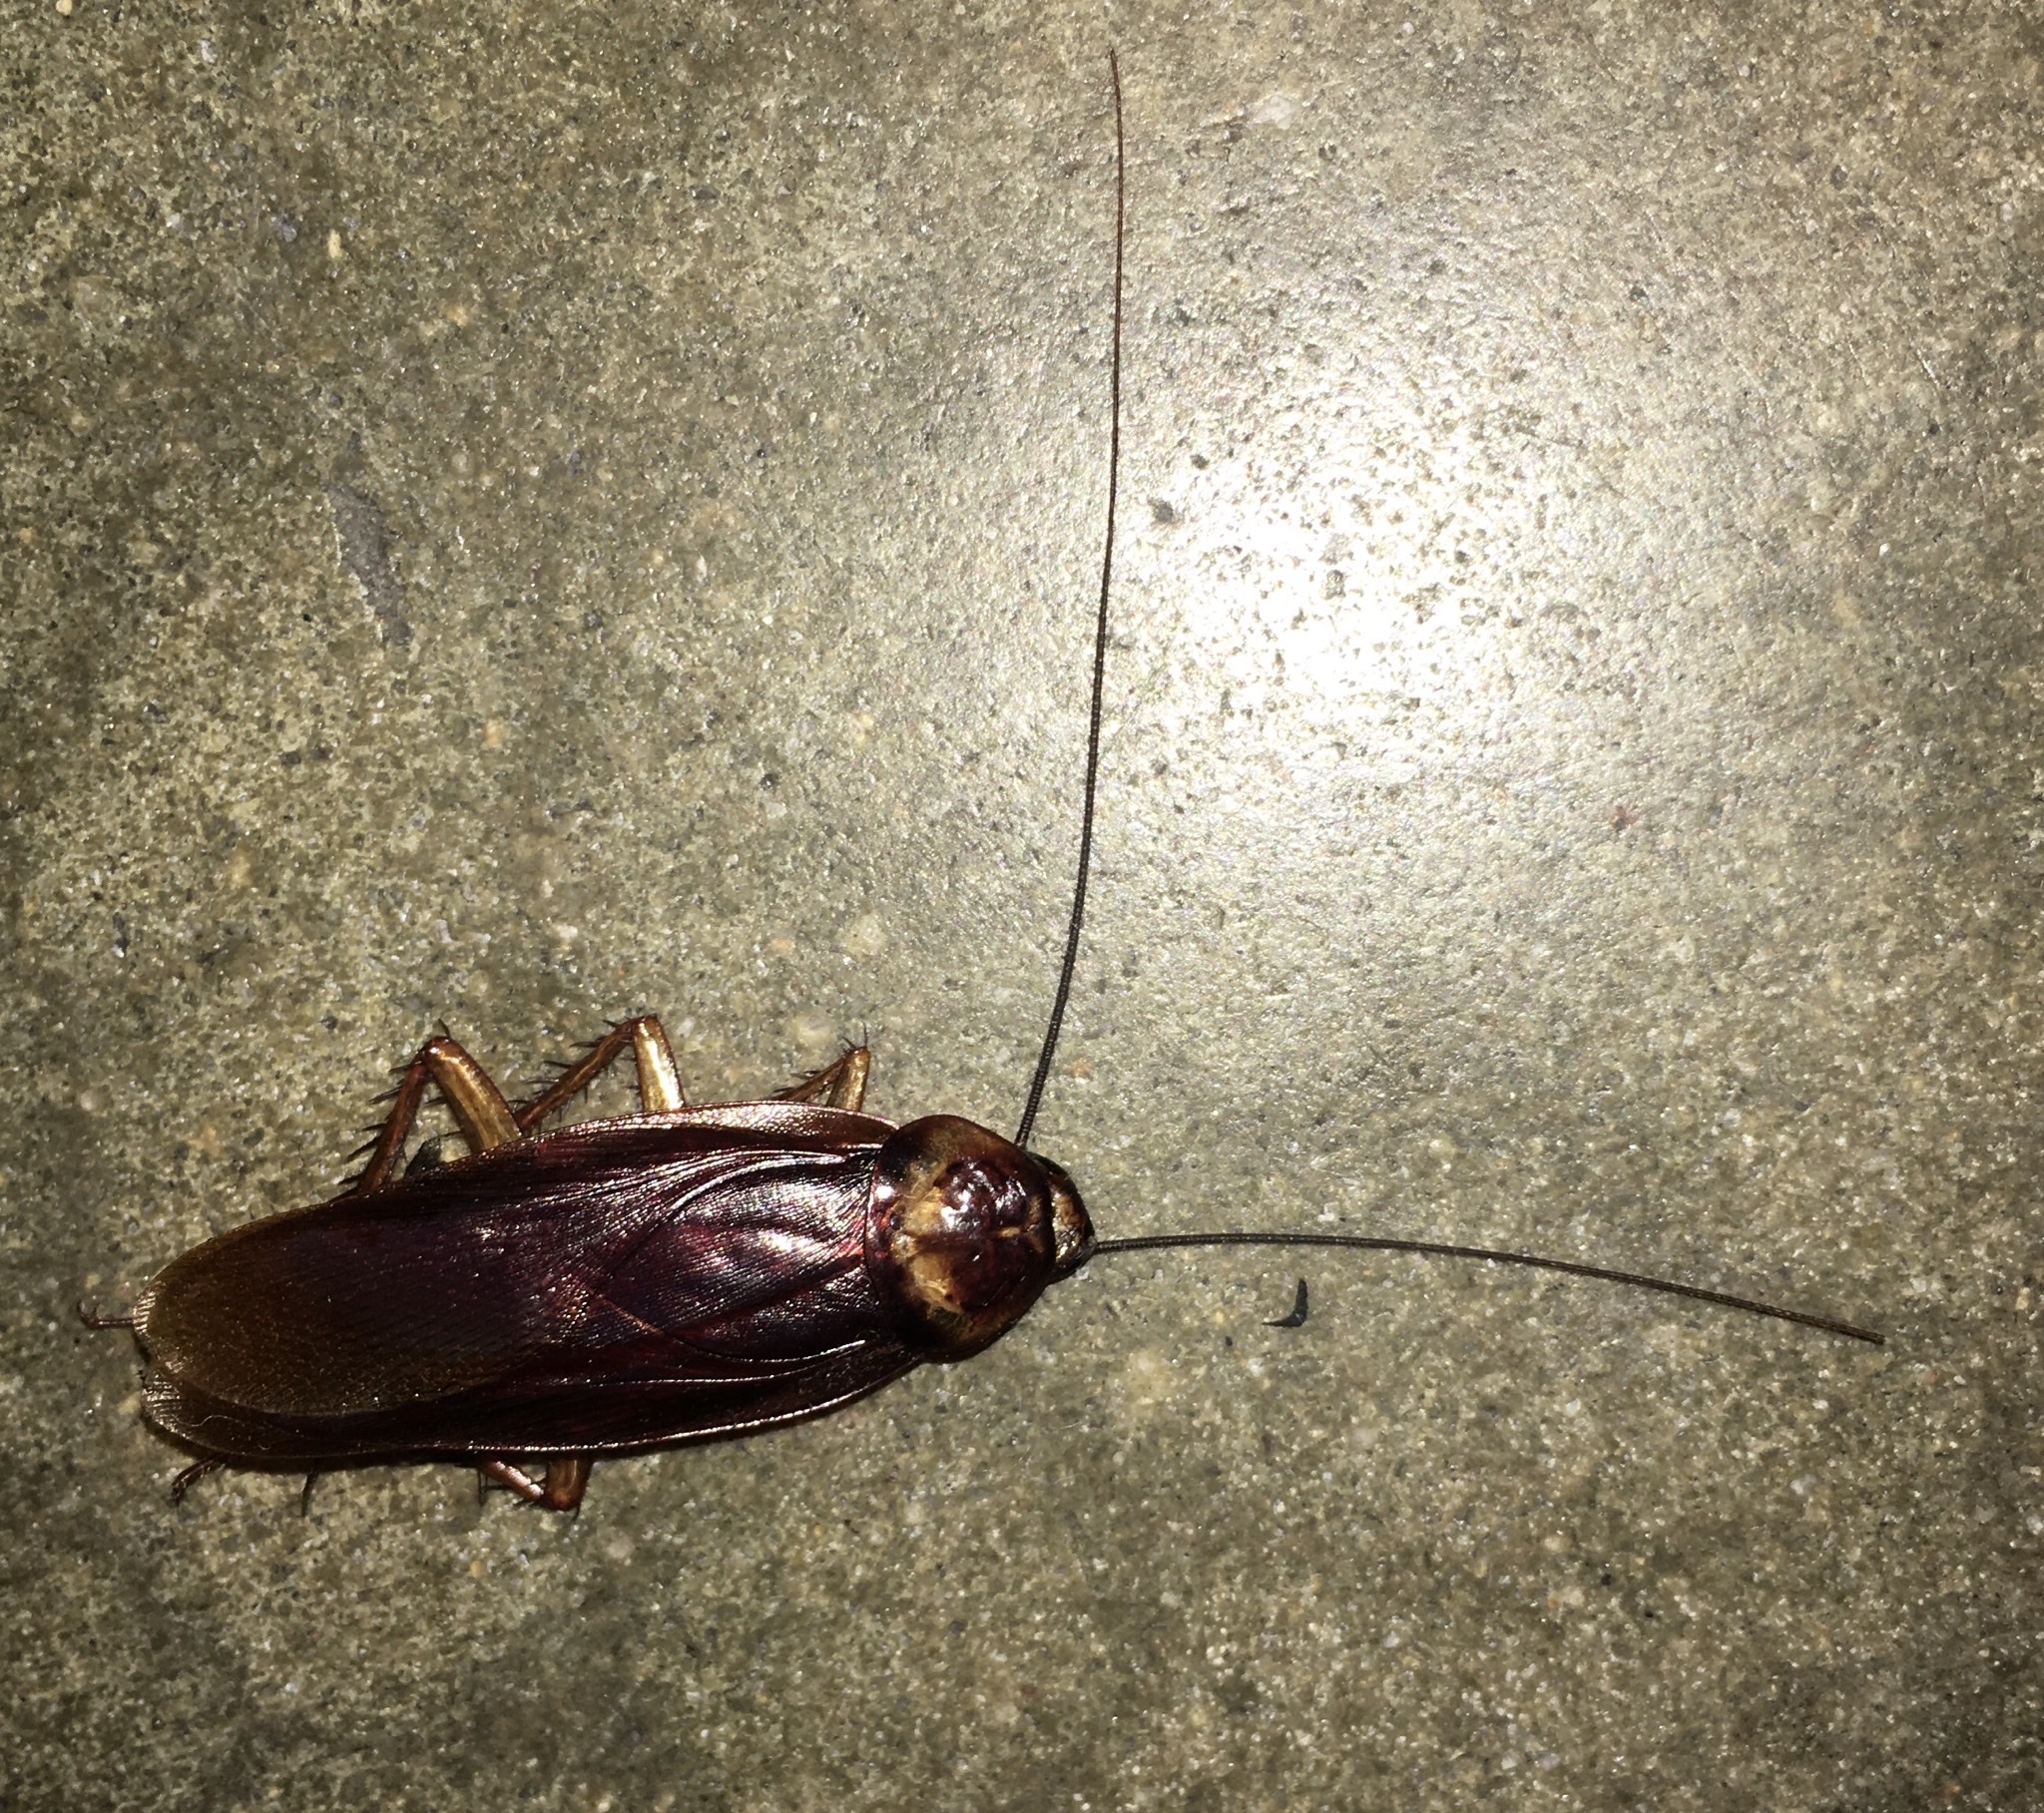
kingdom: Animalia
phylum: Arthropoda
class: Insecta
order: Blattodea
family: Blattidae
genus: Periplaneta
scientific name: Periplaneta americana
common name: American cockroach
